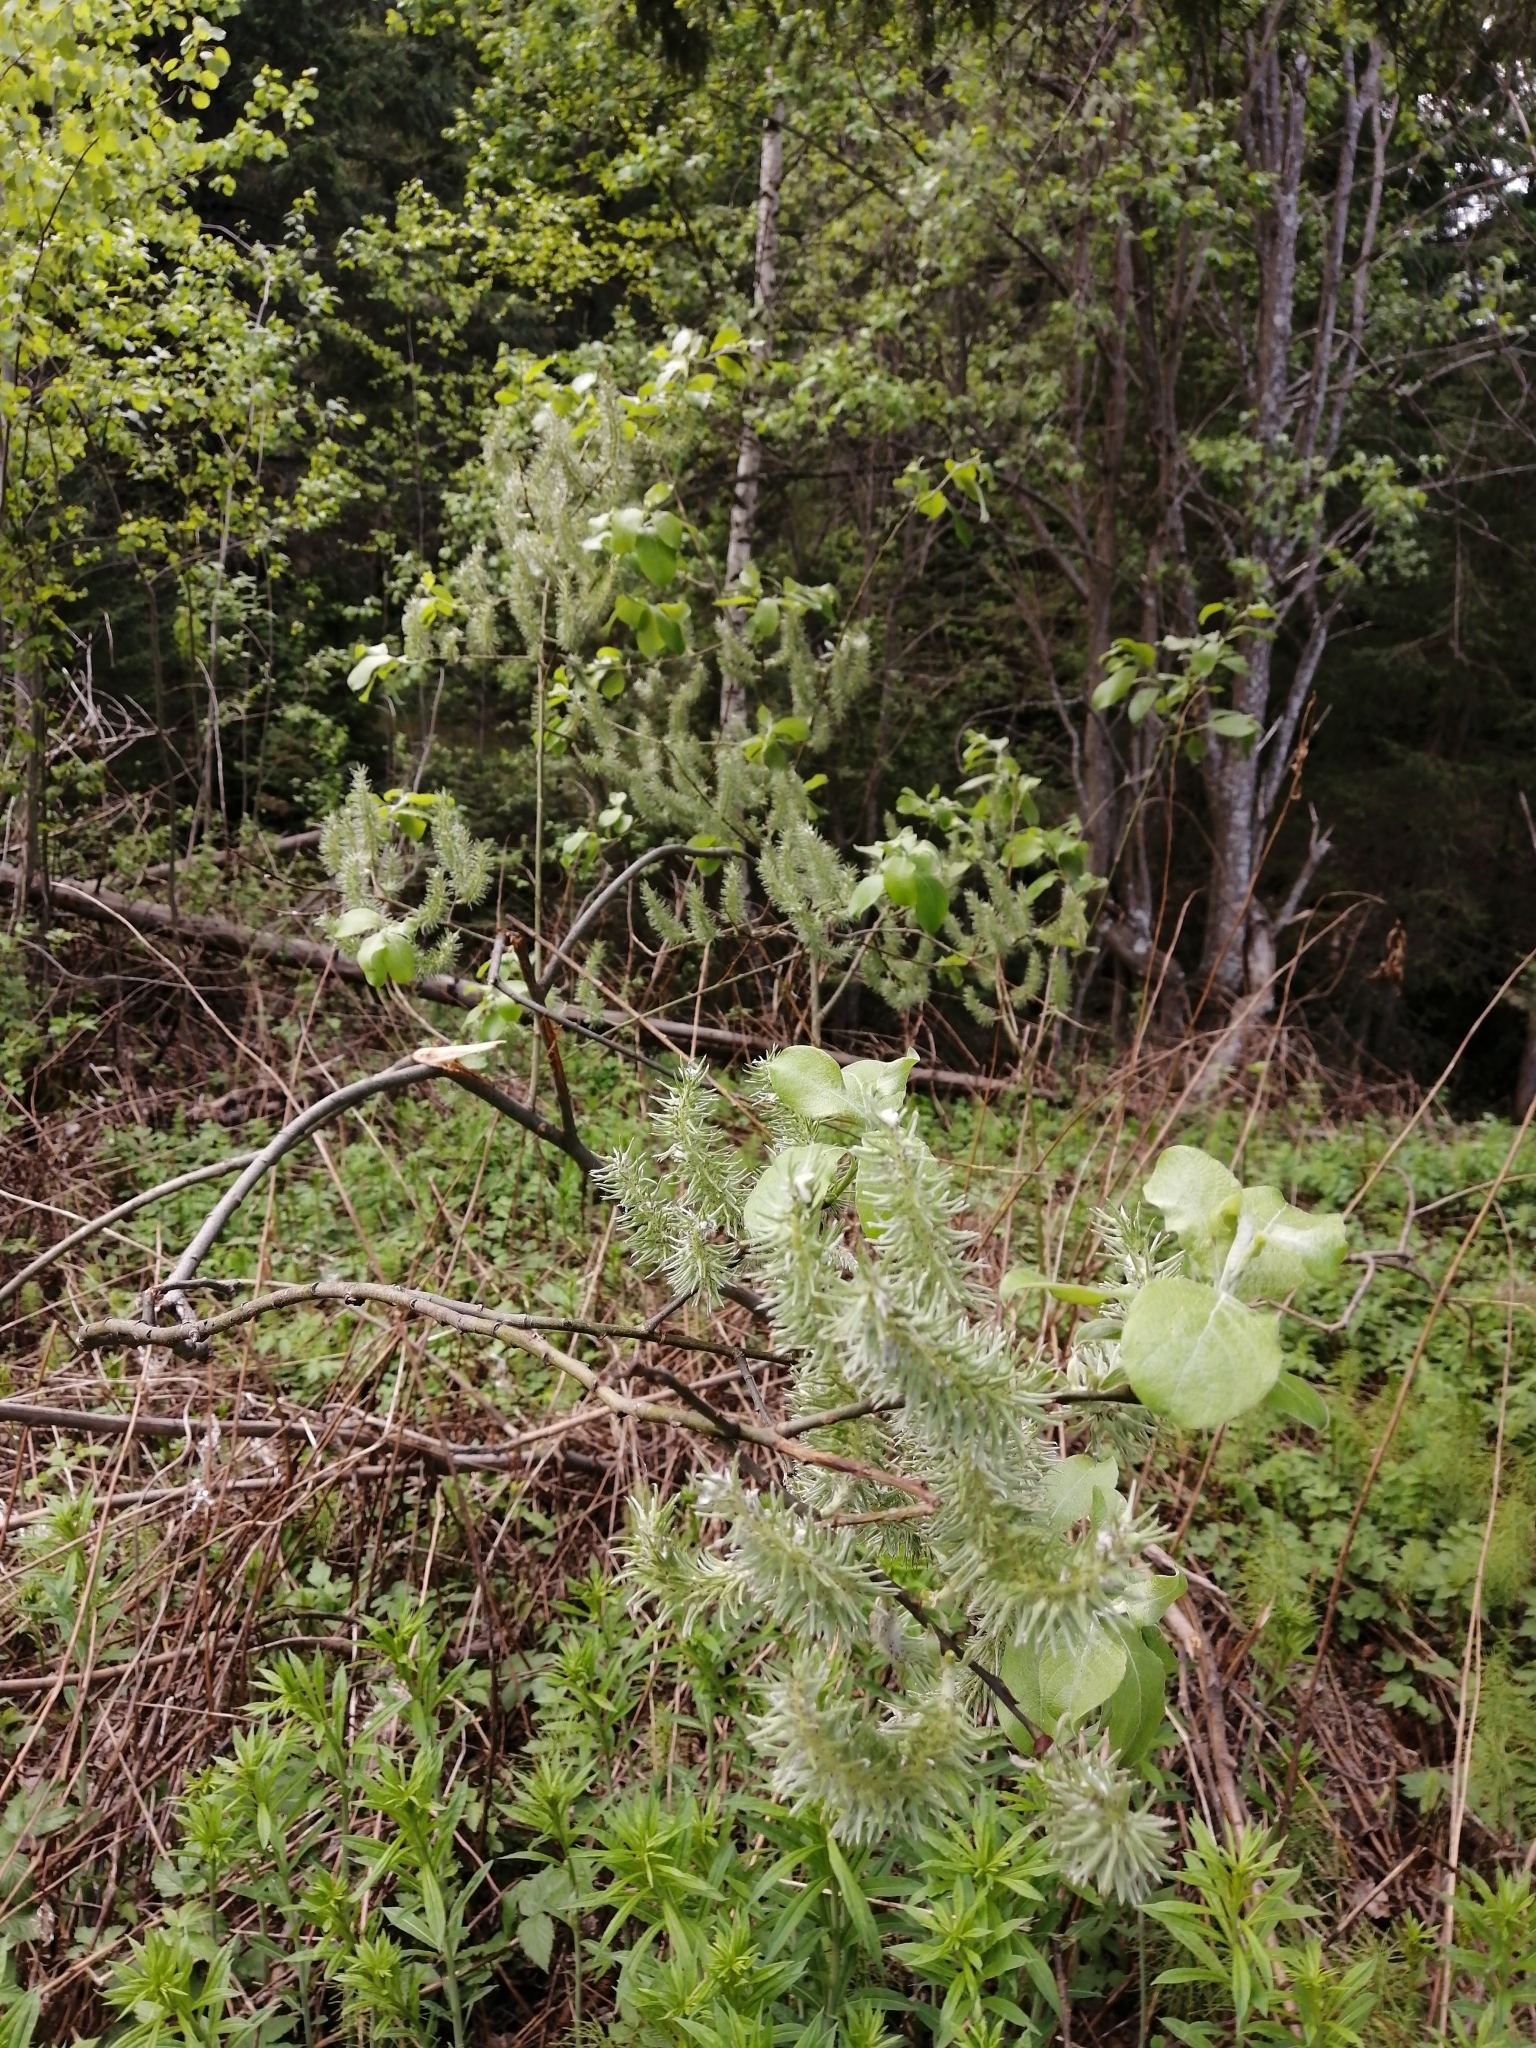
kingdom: Plantae
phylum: Tracheophyta
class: Magnoliopsida
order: Malpighiales
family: Salicaceae
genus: Salix
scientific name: Salix caprea
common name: Goat willow
